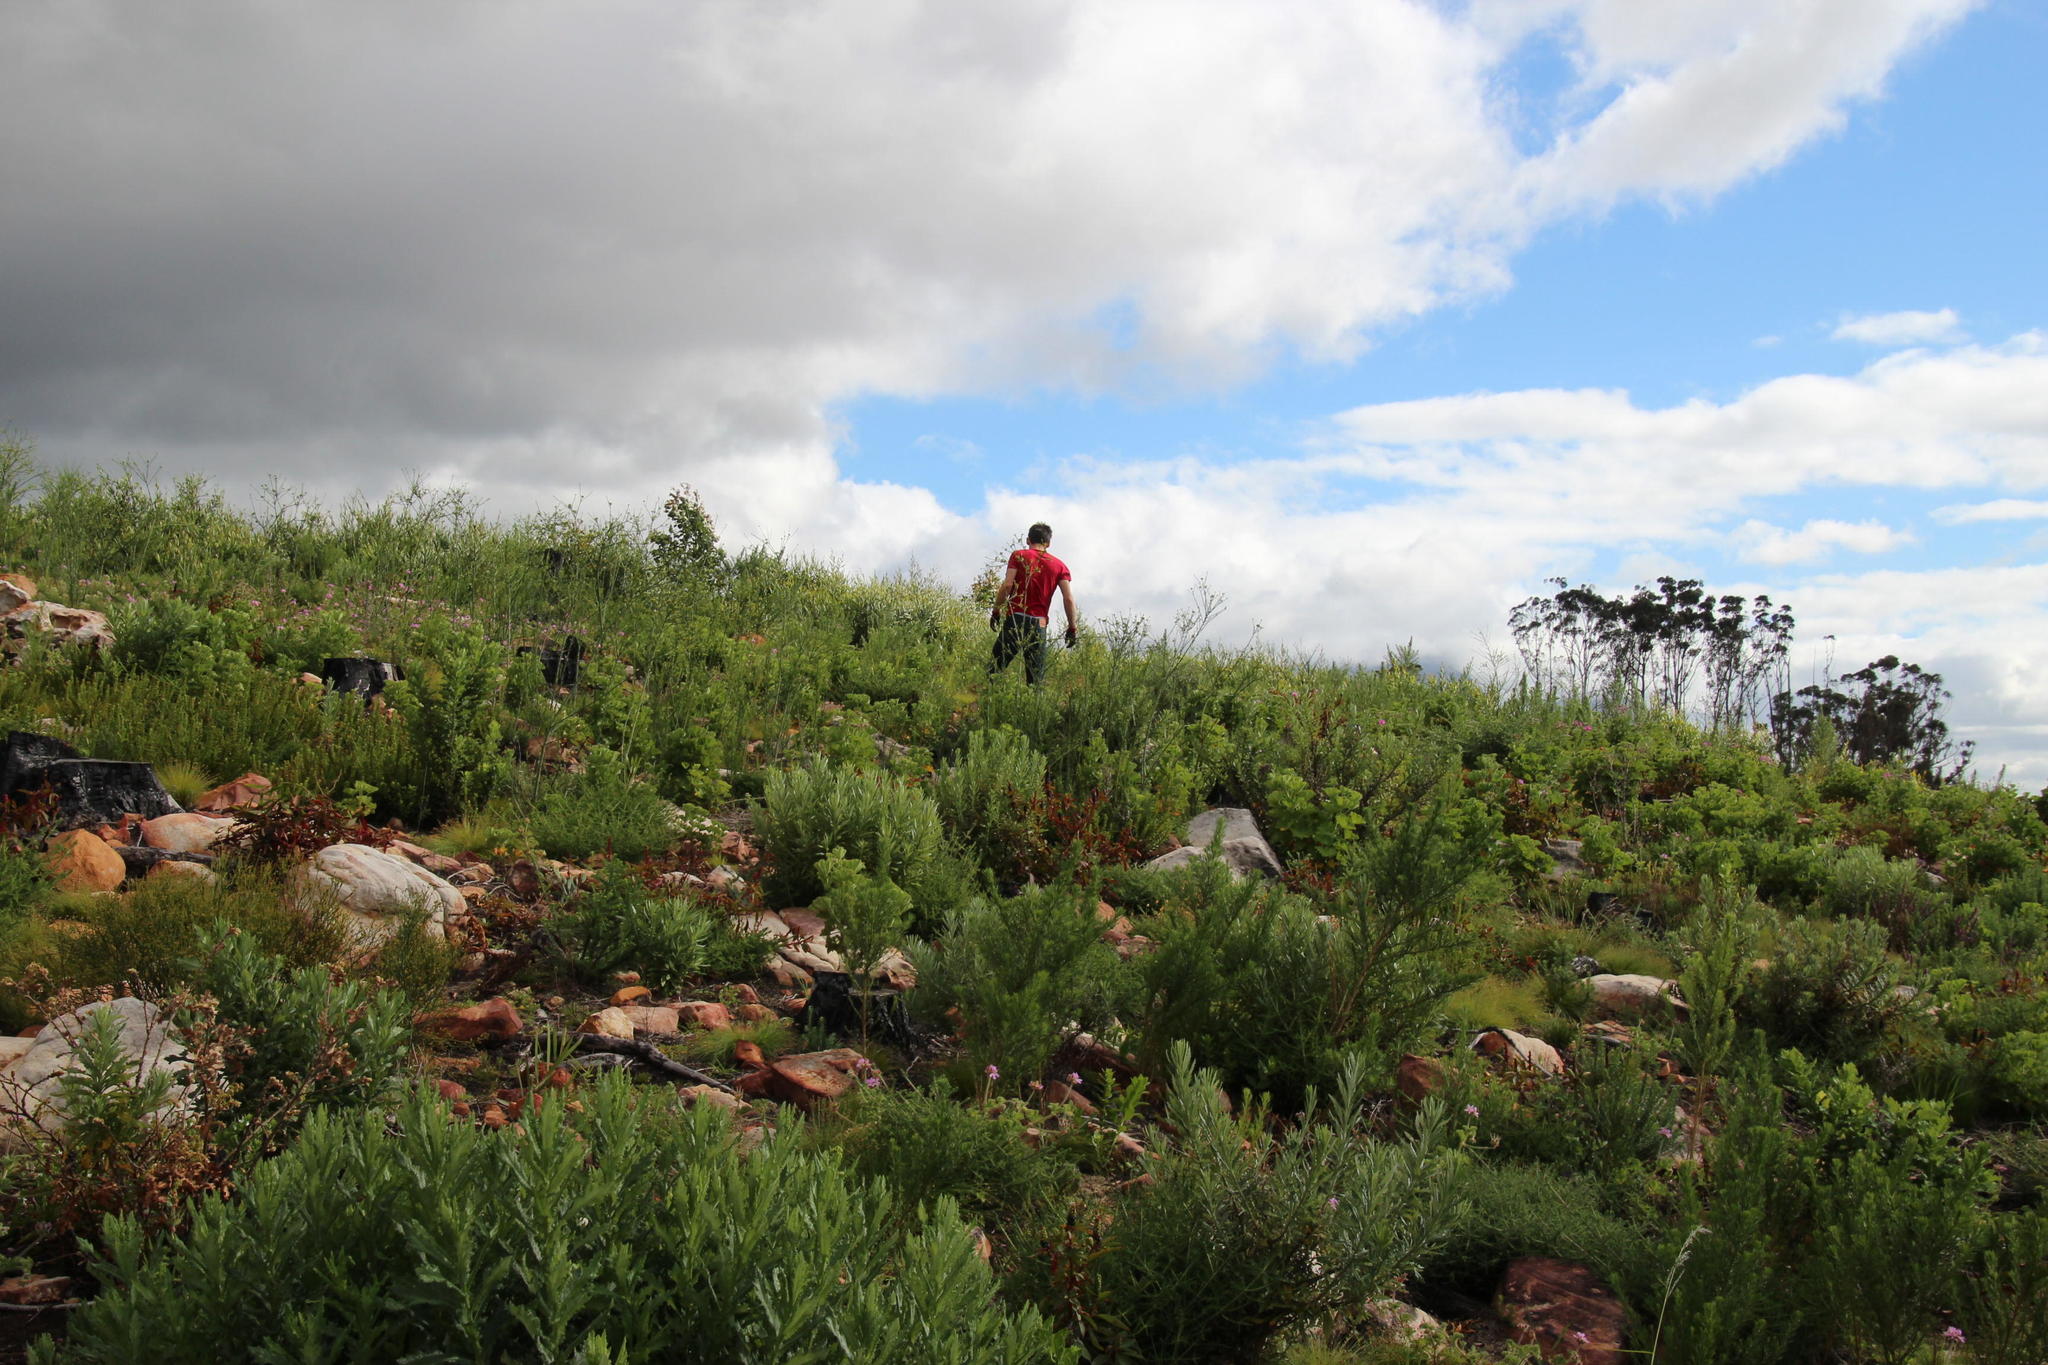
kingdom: Plantae
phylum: Tracheophyta
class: Magnoliopsida
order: Santalales
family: Thesiaceae
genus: Thesium
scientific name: Thesium strictum
